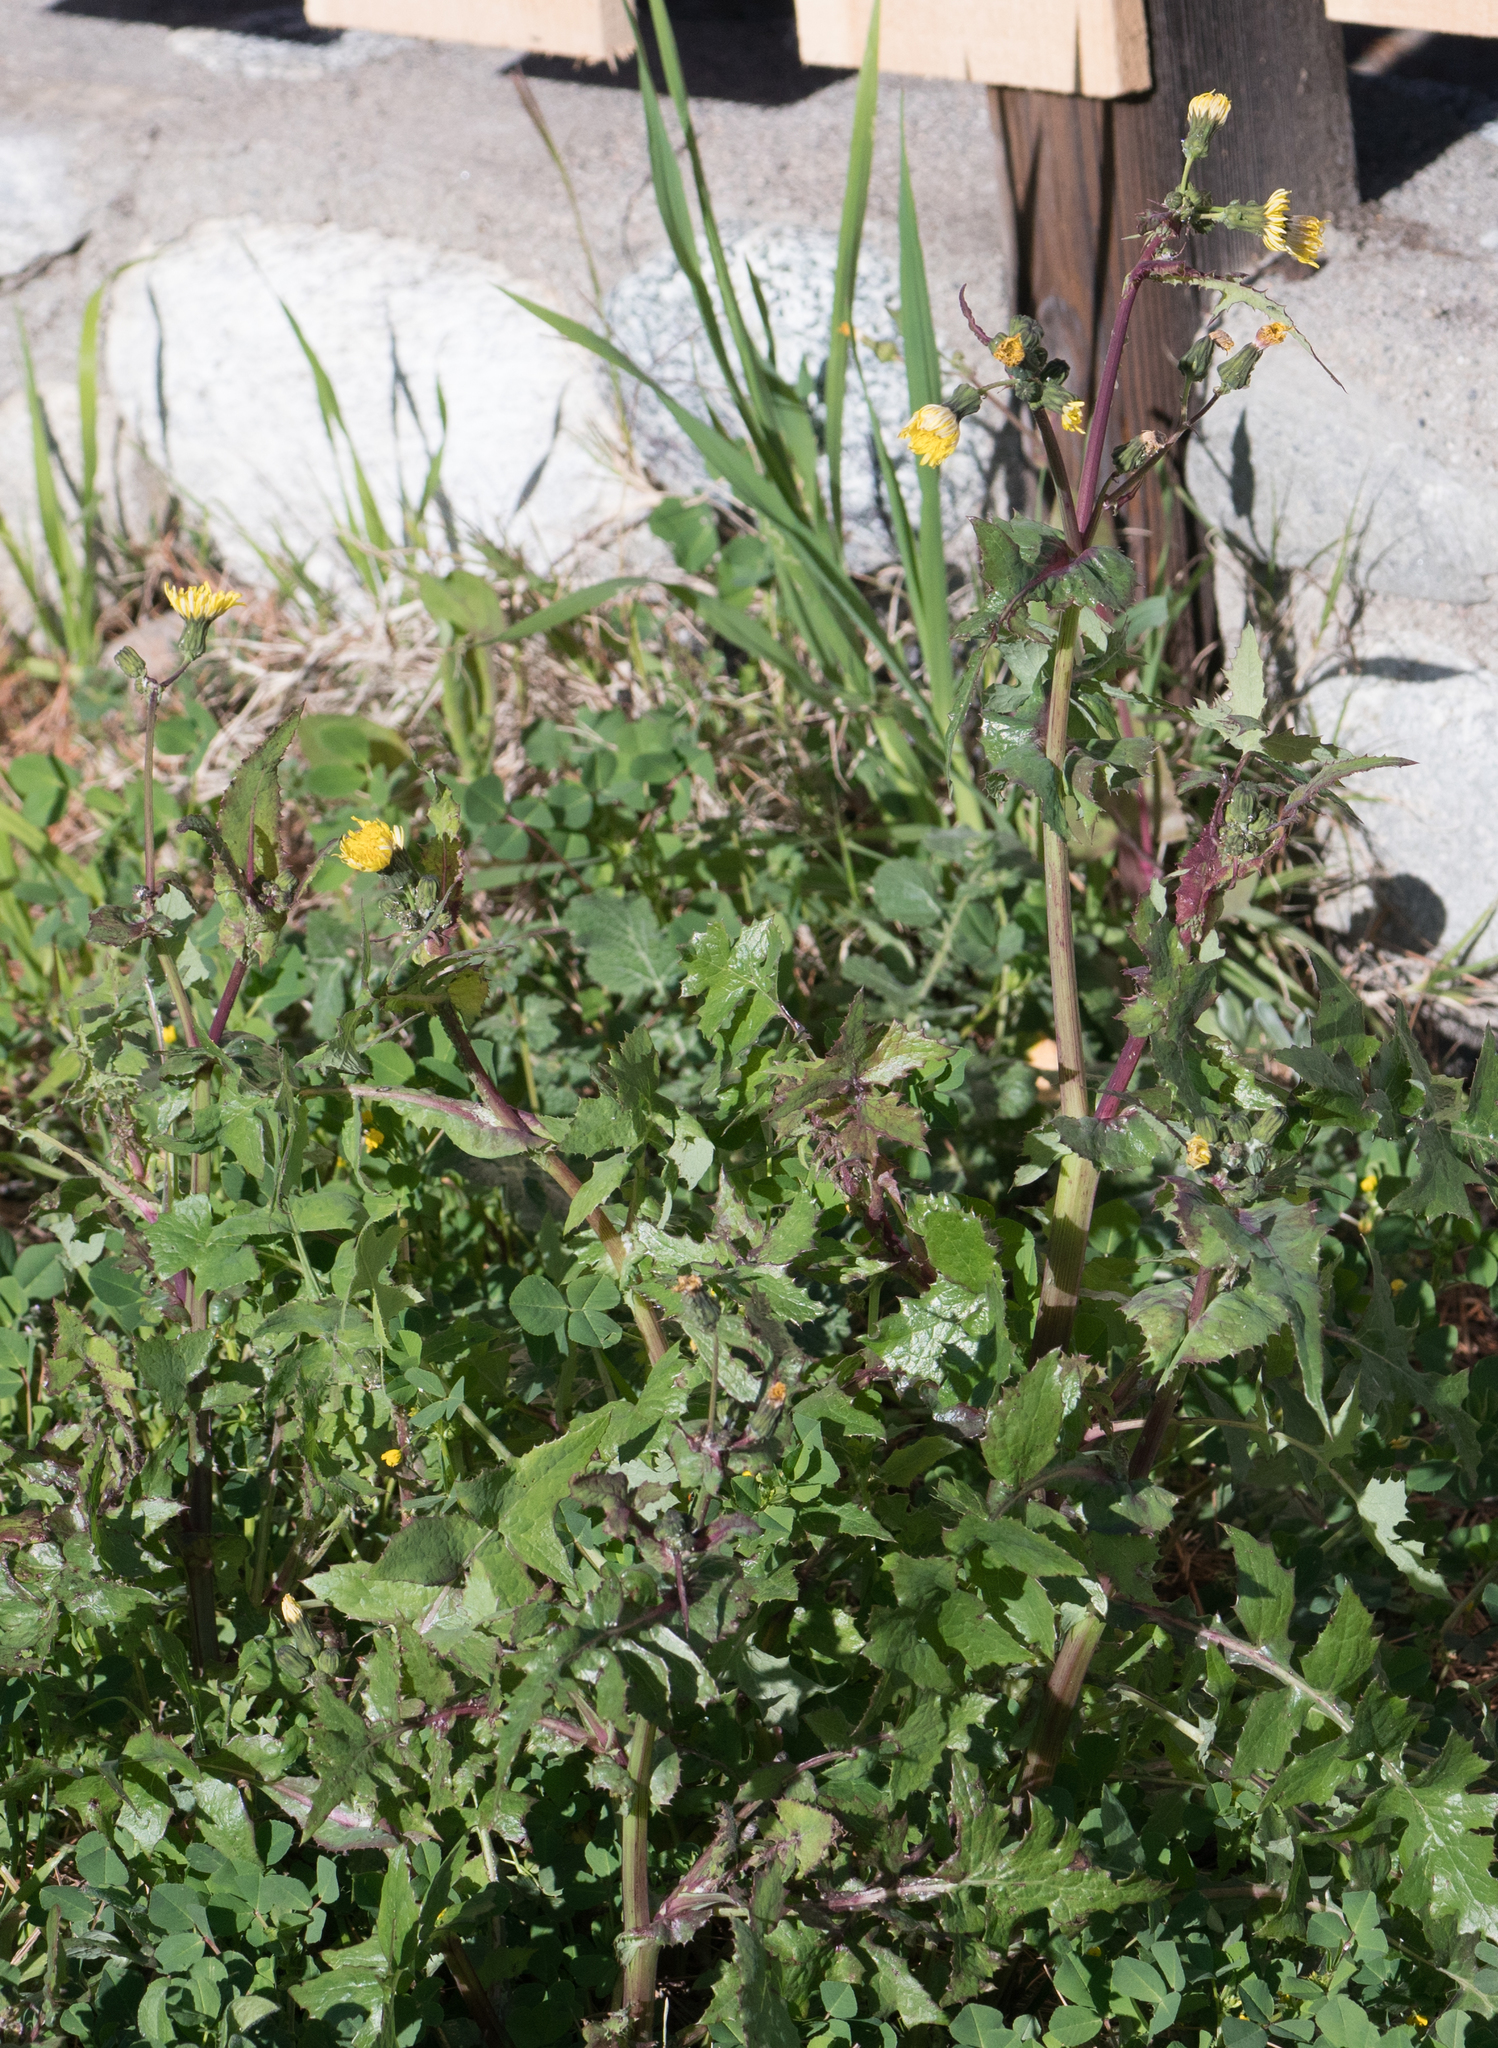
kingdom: Plantae
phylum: Tracheophyta
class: Magnoliopsida
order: Asterales
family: Asteraceae
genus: Sonchus
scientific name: Sonchus oleraceus
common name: Common sowthistle
